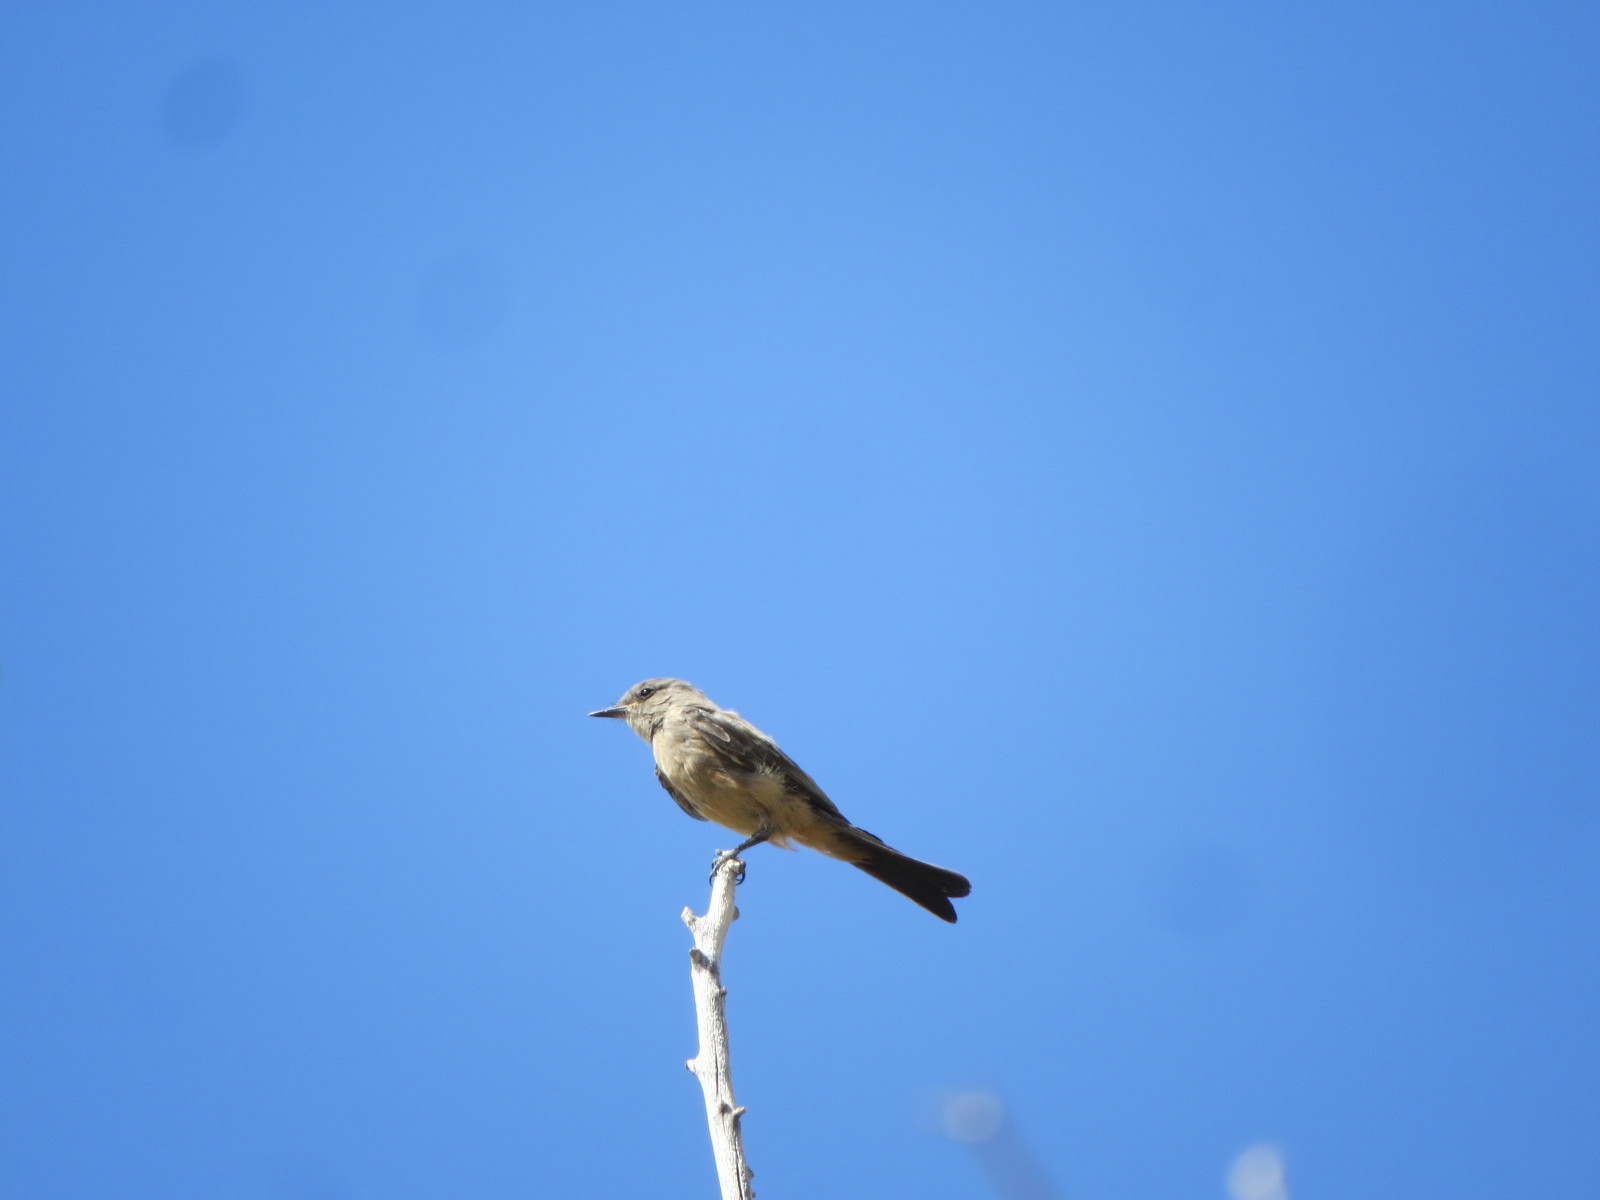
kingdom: Animalia
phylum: Chordata
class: Aves
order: Passeriformes
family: Tyrannidae
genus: Sayornis
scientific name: Sayornis saya
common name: Say's phoebe
